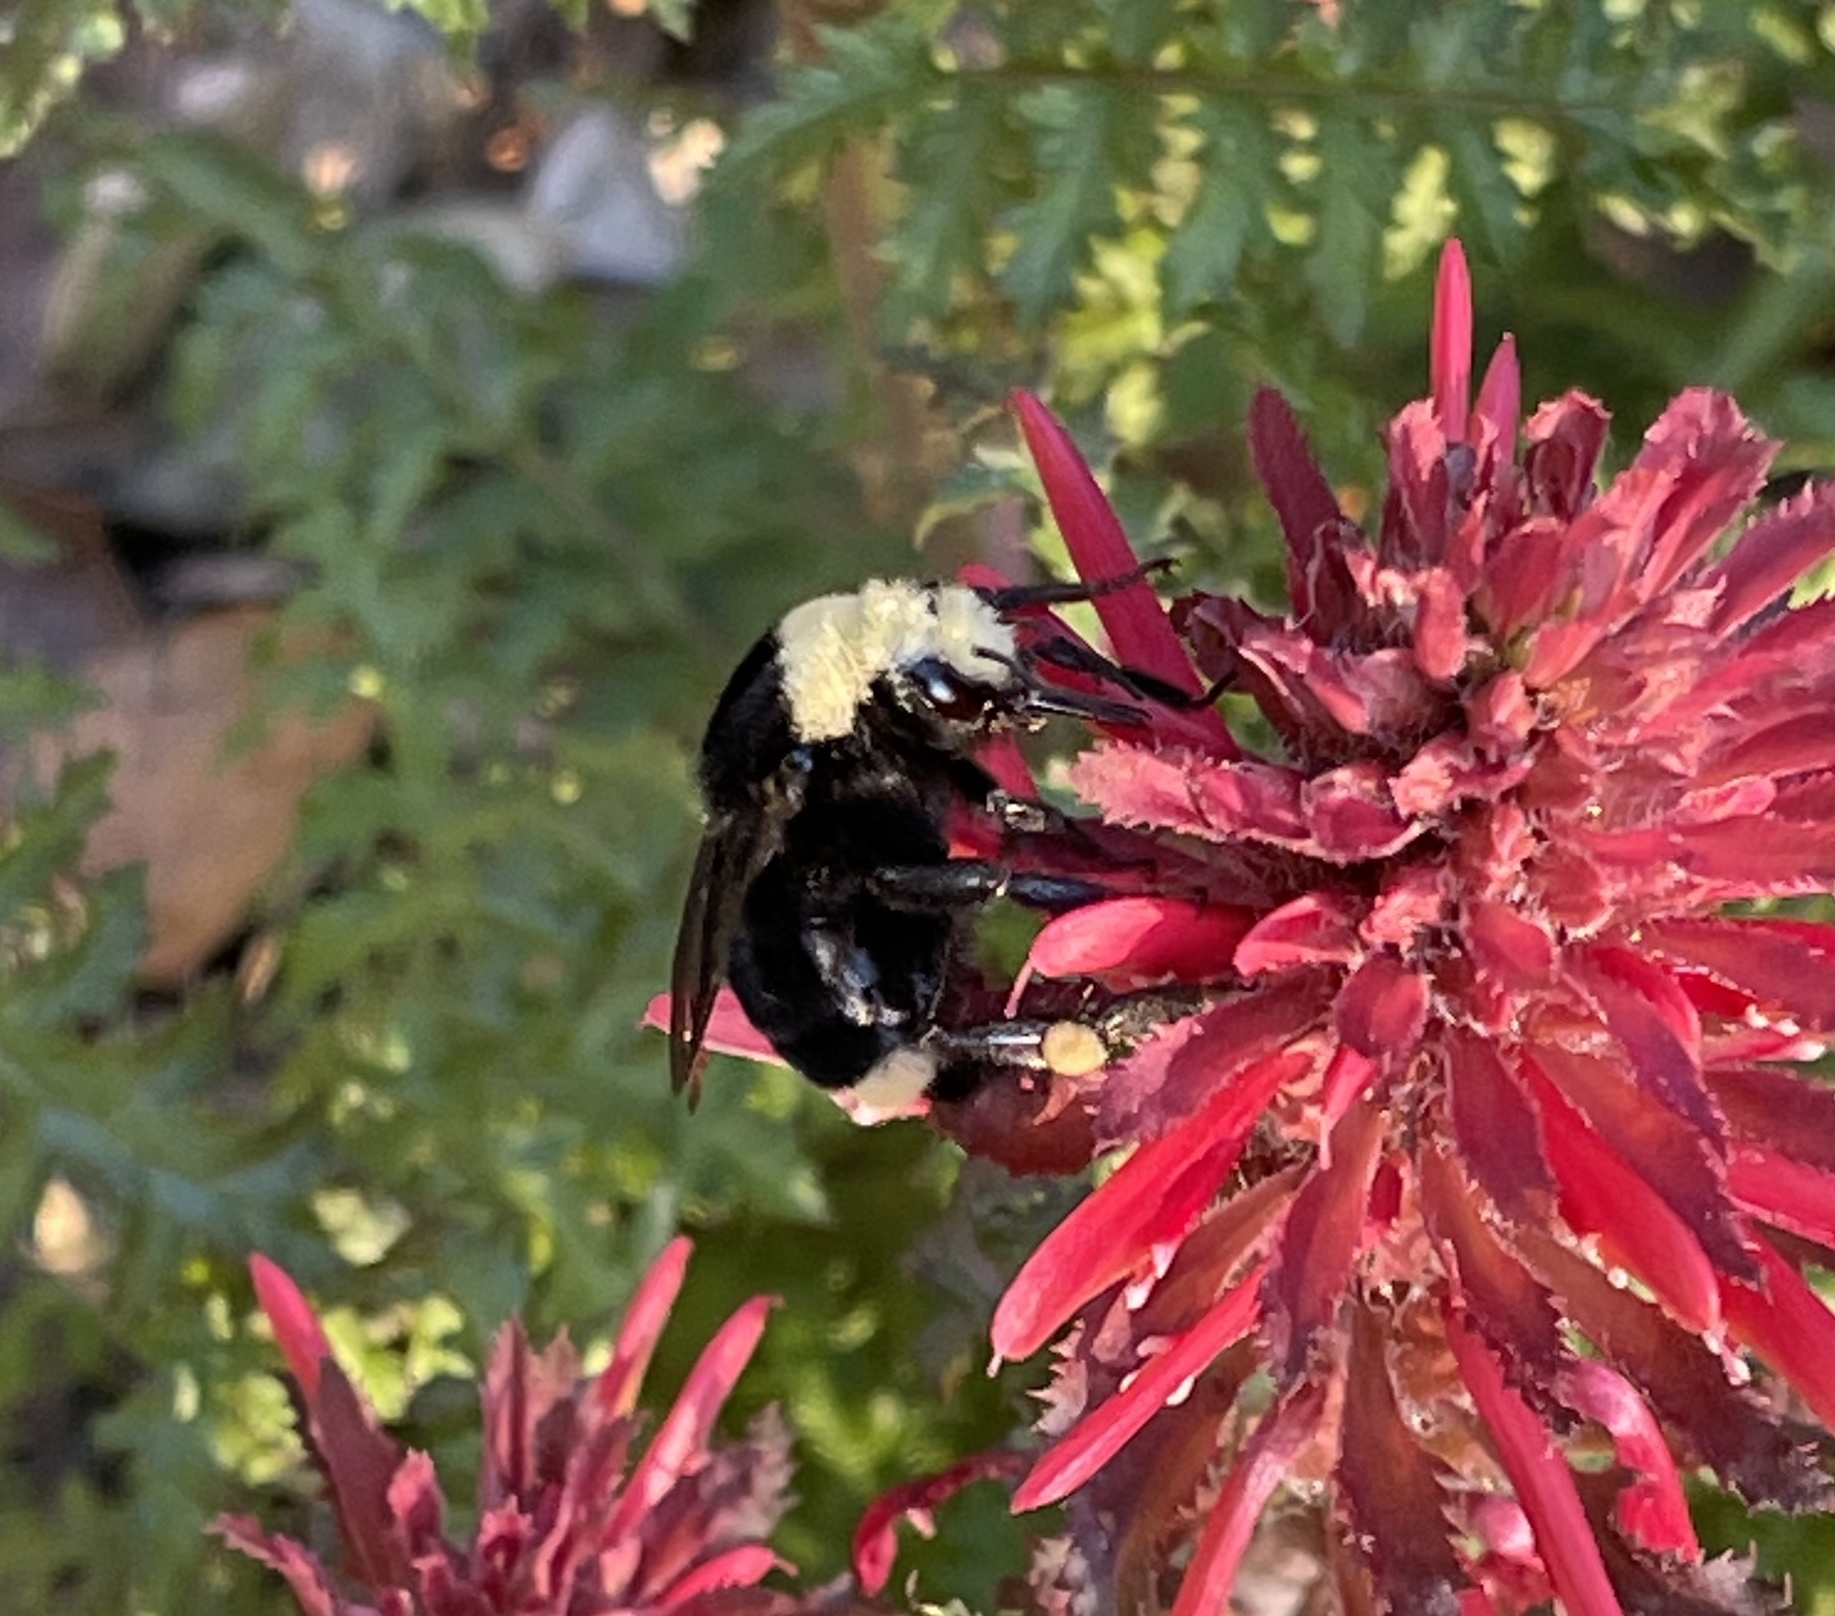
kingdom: Animalia
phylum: Arthropoda
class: Insecta
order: Hymenoptera
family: Apidae
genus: Bombus
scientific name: Bombus vosnesenskii
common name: Vosnesensky bumble bee
